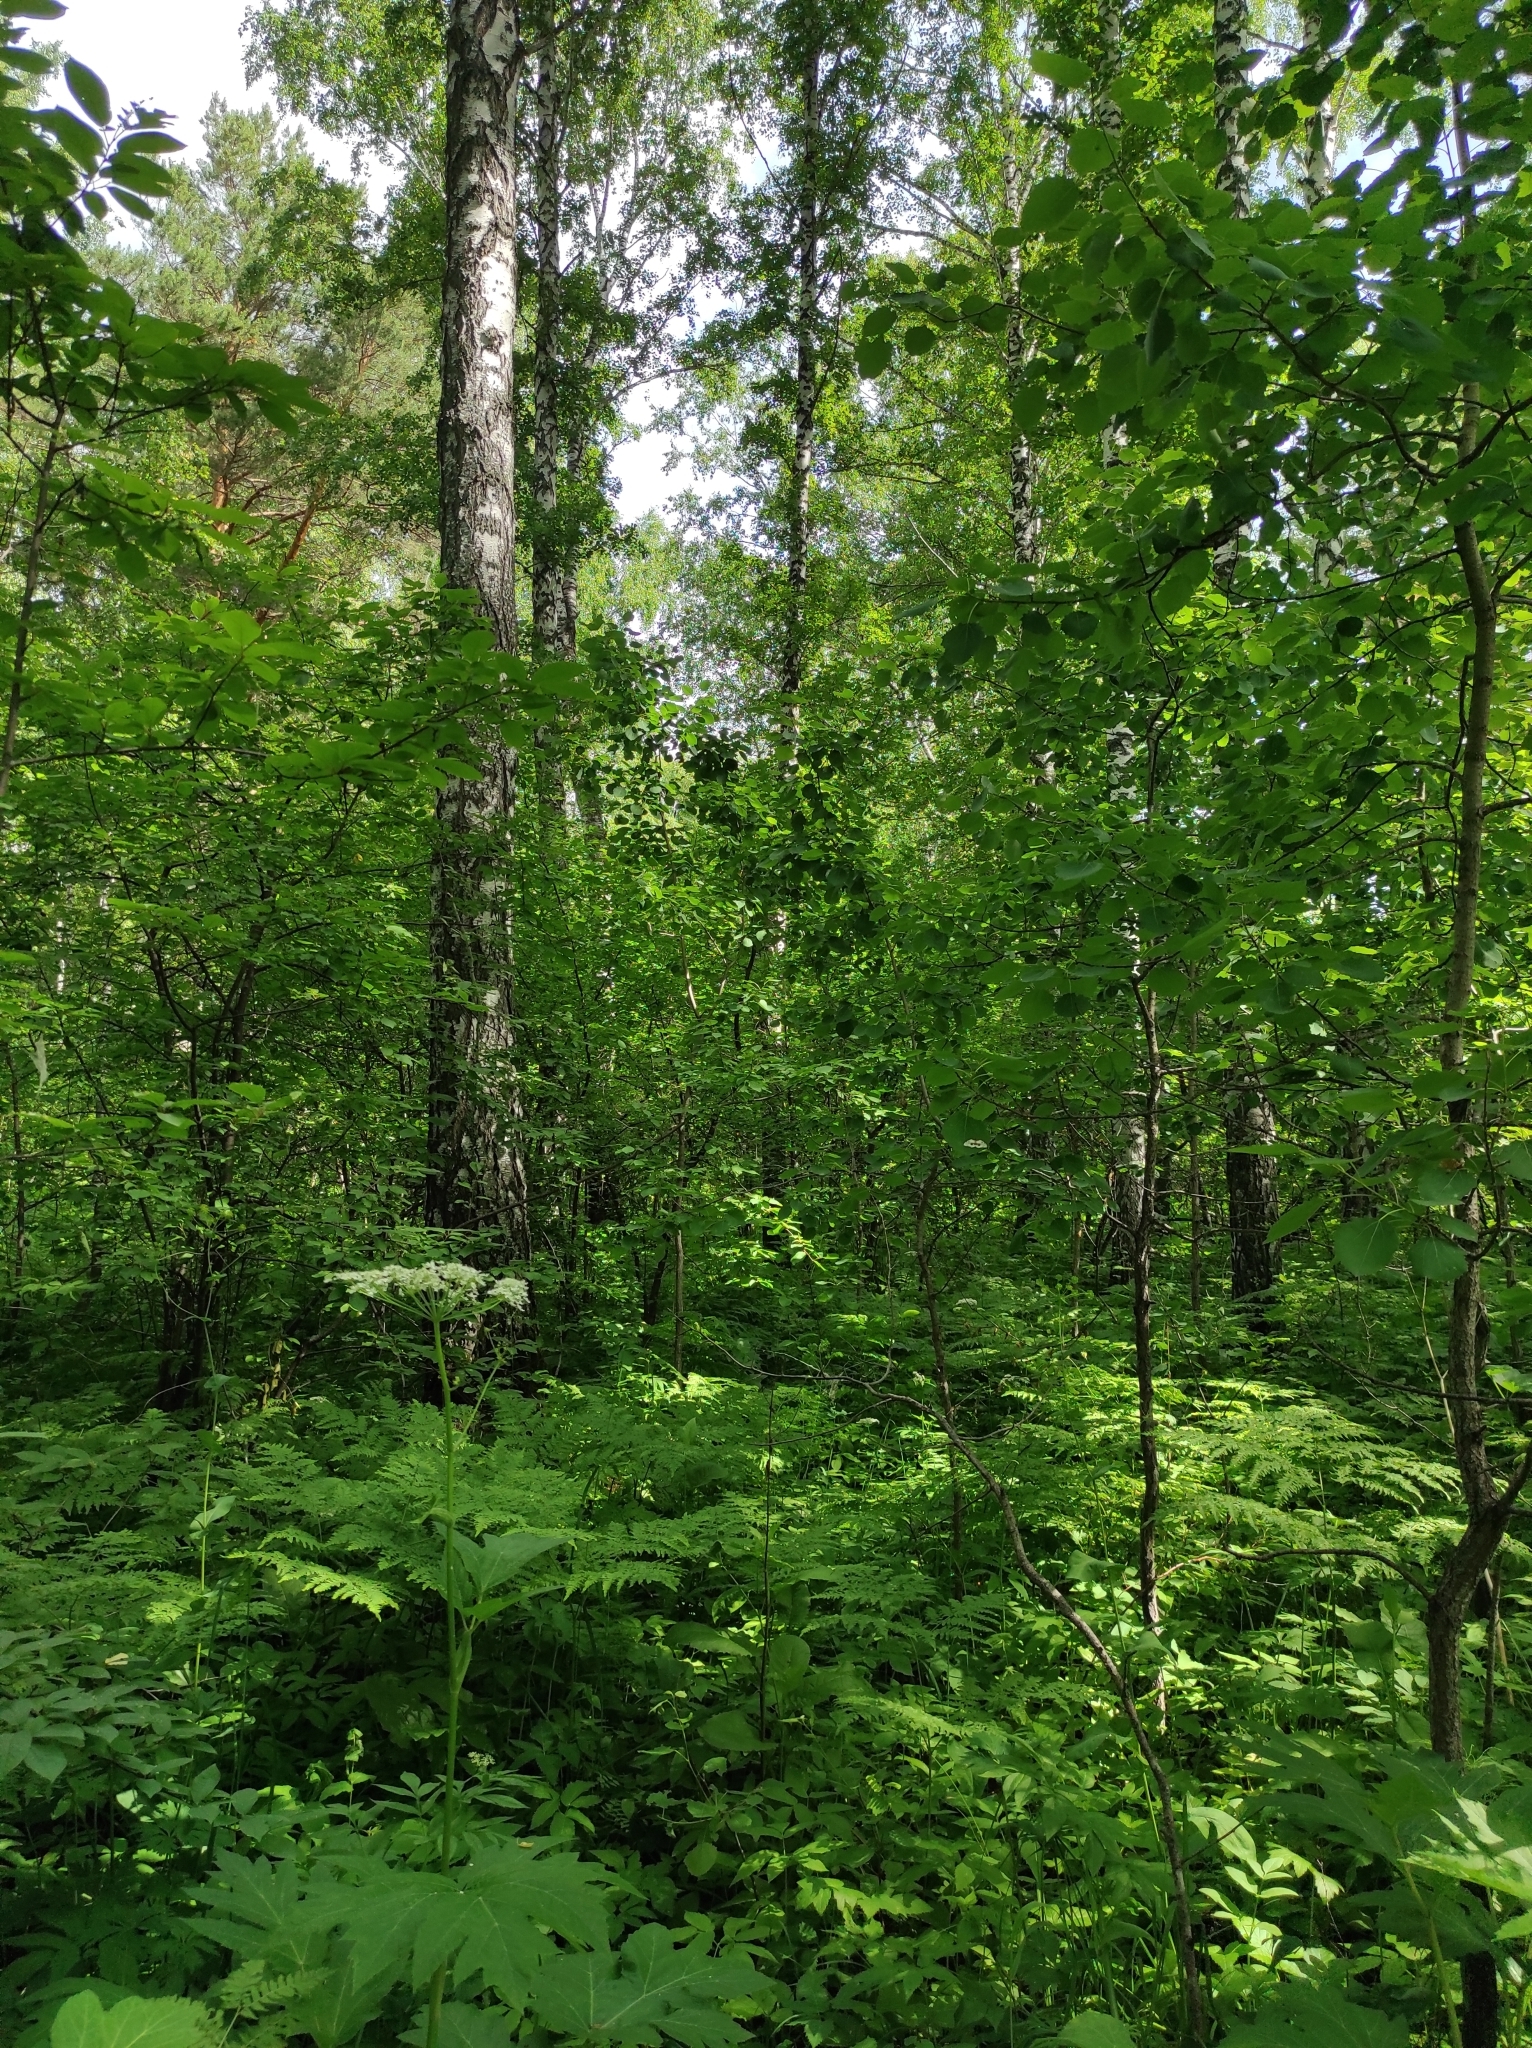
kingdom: Plantae
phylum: Tracheophyta
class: Magnoliopsida
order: Fagales
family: Betulaceae
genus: Betula
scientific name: Betula pendula
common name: Silver birch
